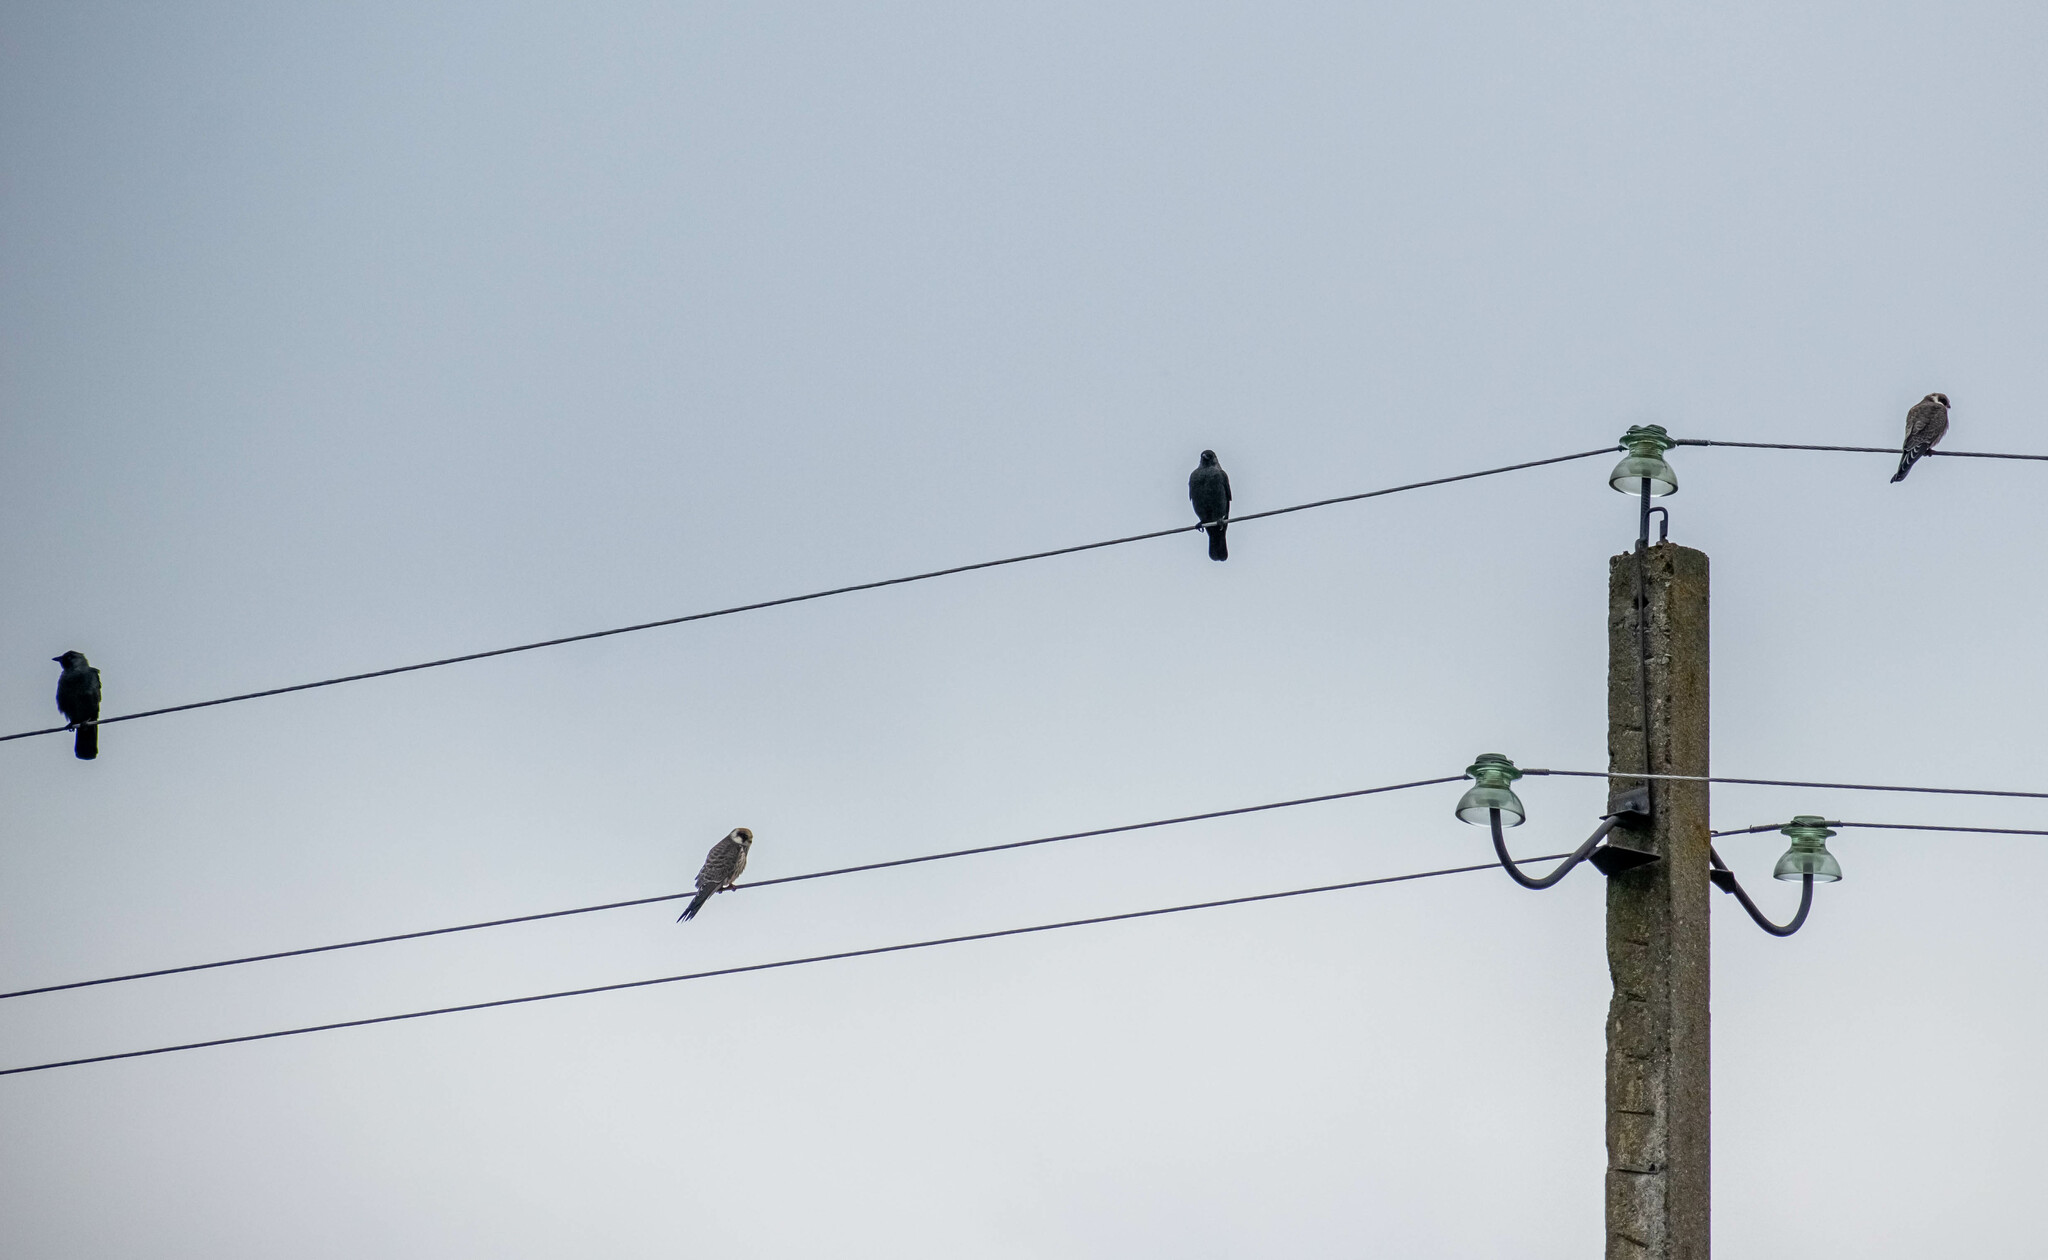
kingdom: Animalia
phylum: Chordata
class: Aves
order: Falconiformes
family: Falconidae
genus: Falco
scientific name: Falco vespertinus
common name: Red-footed falcon
